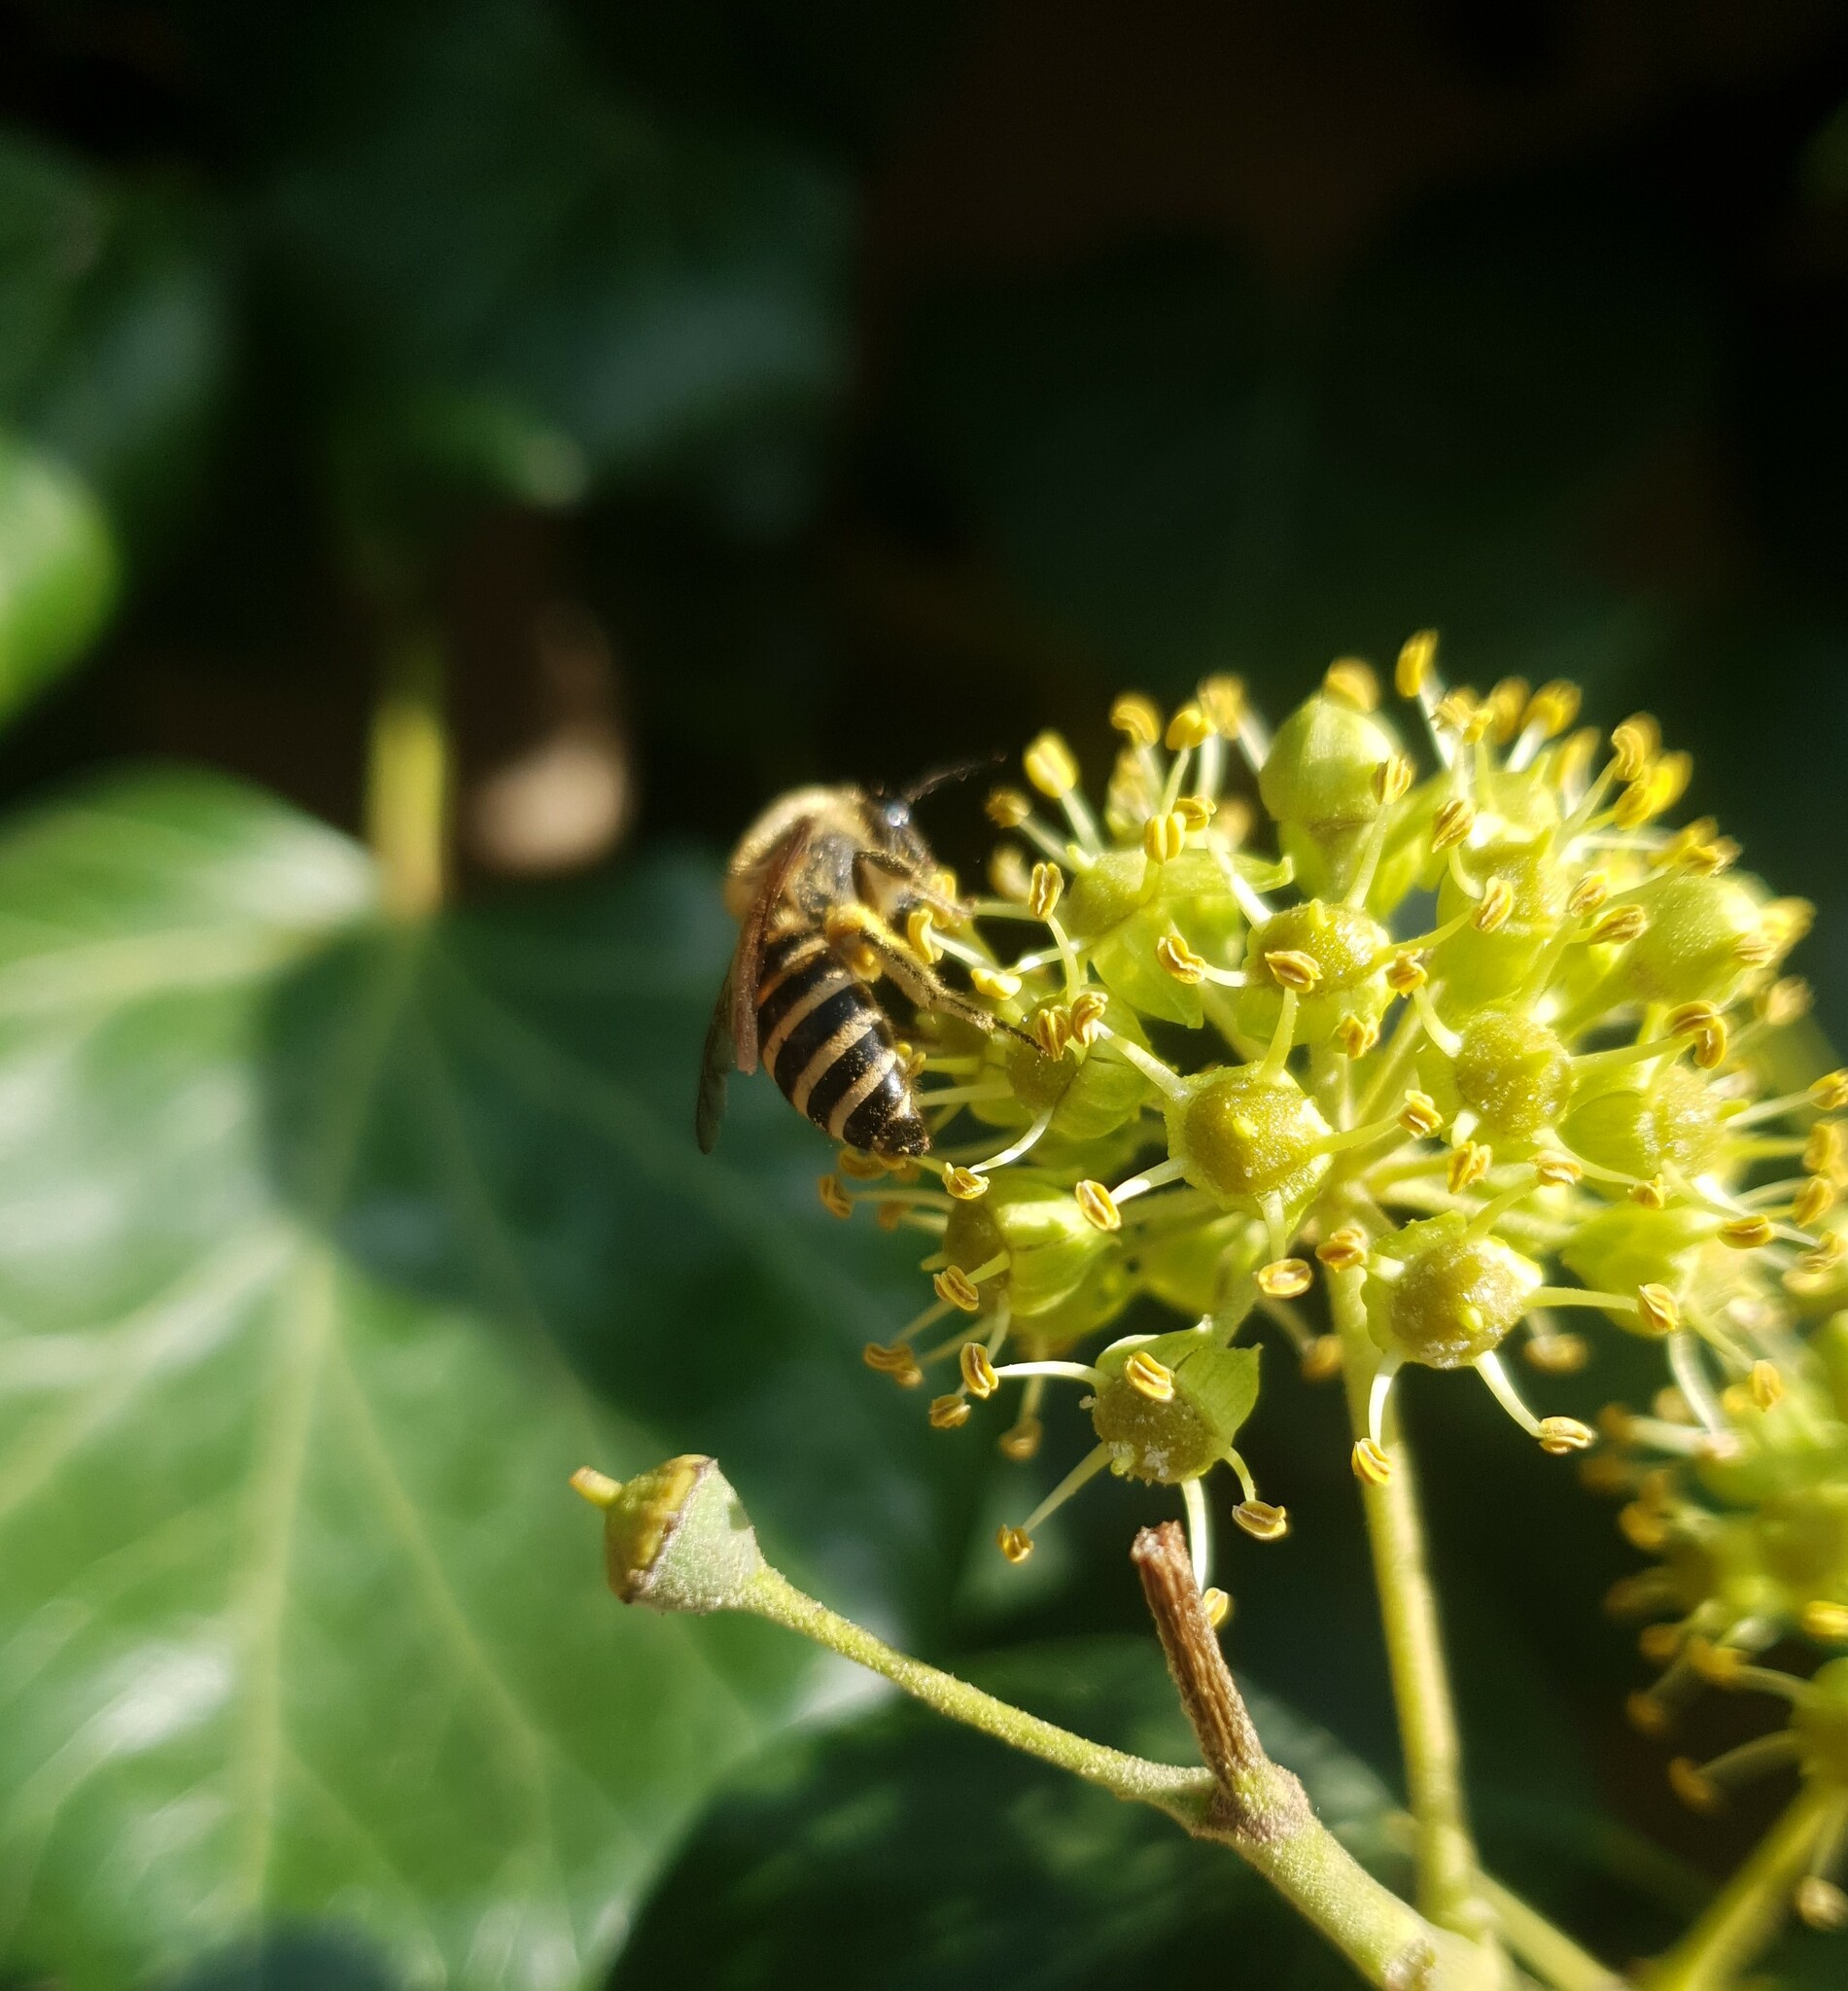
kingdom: Animalia
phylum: Arthropoda
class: Insecta
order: Hymenoptera
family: Colletidae
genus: Colletes
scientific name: Colletes hederae
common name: Ivy bee
